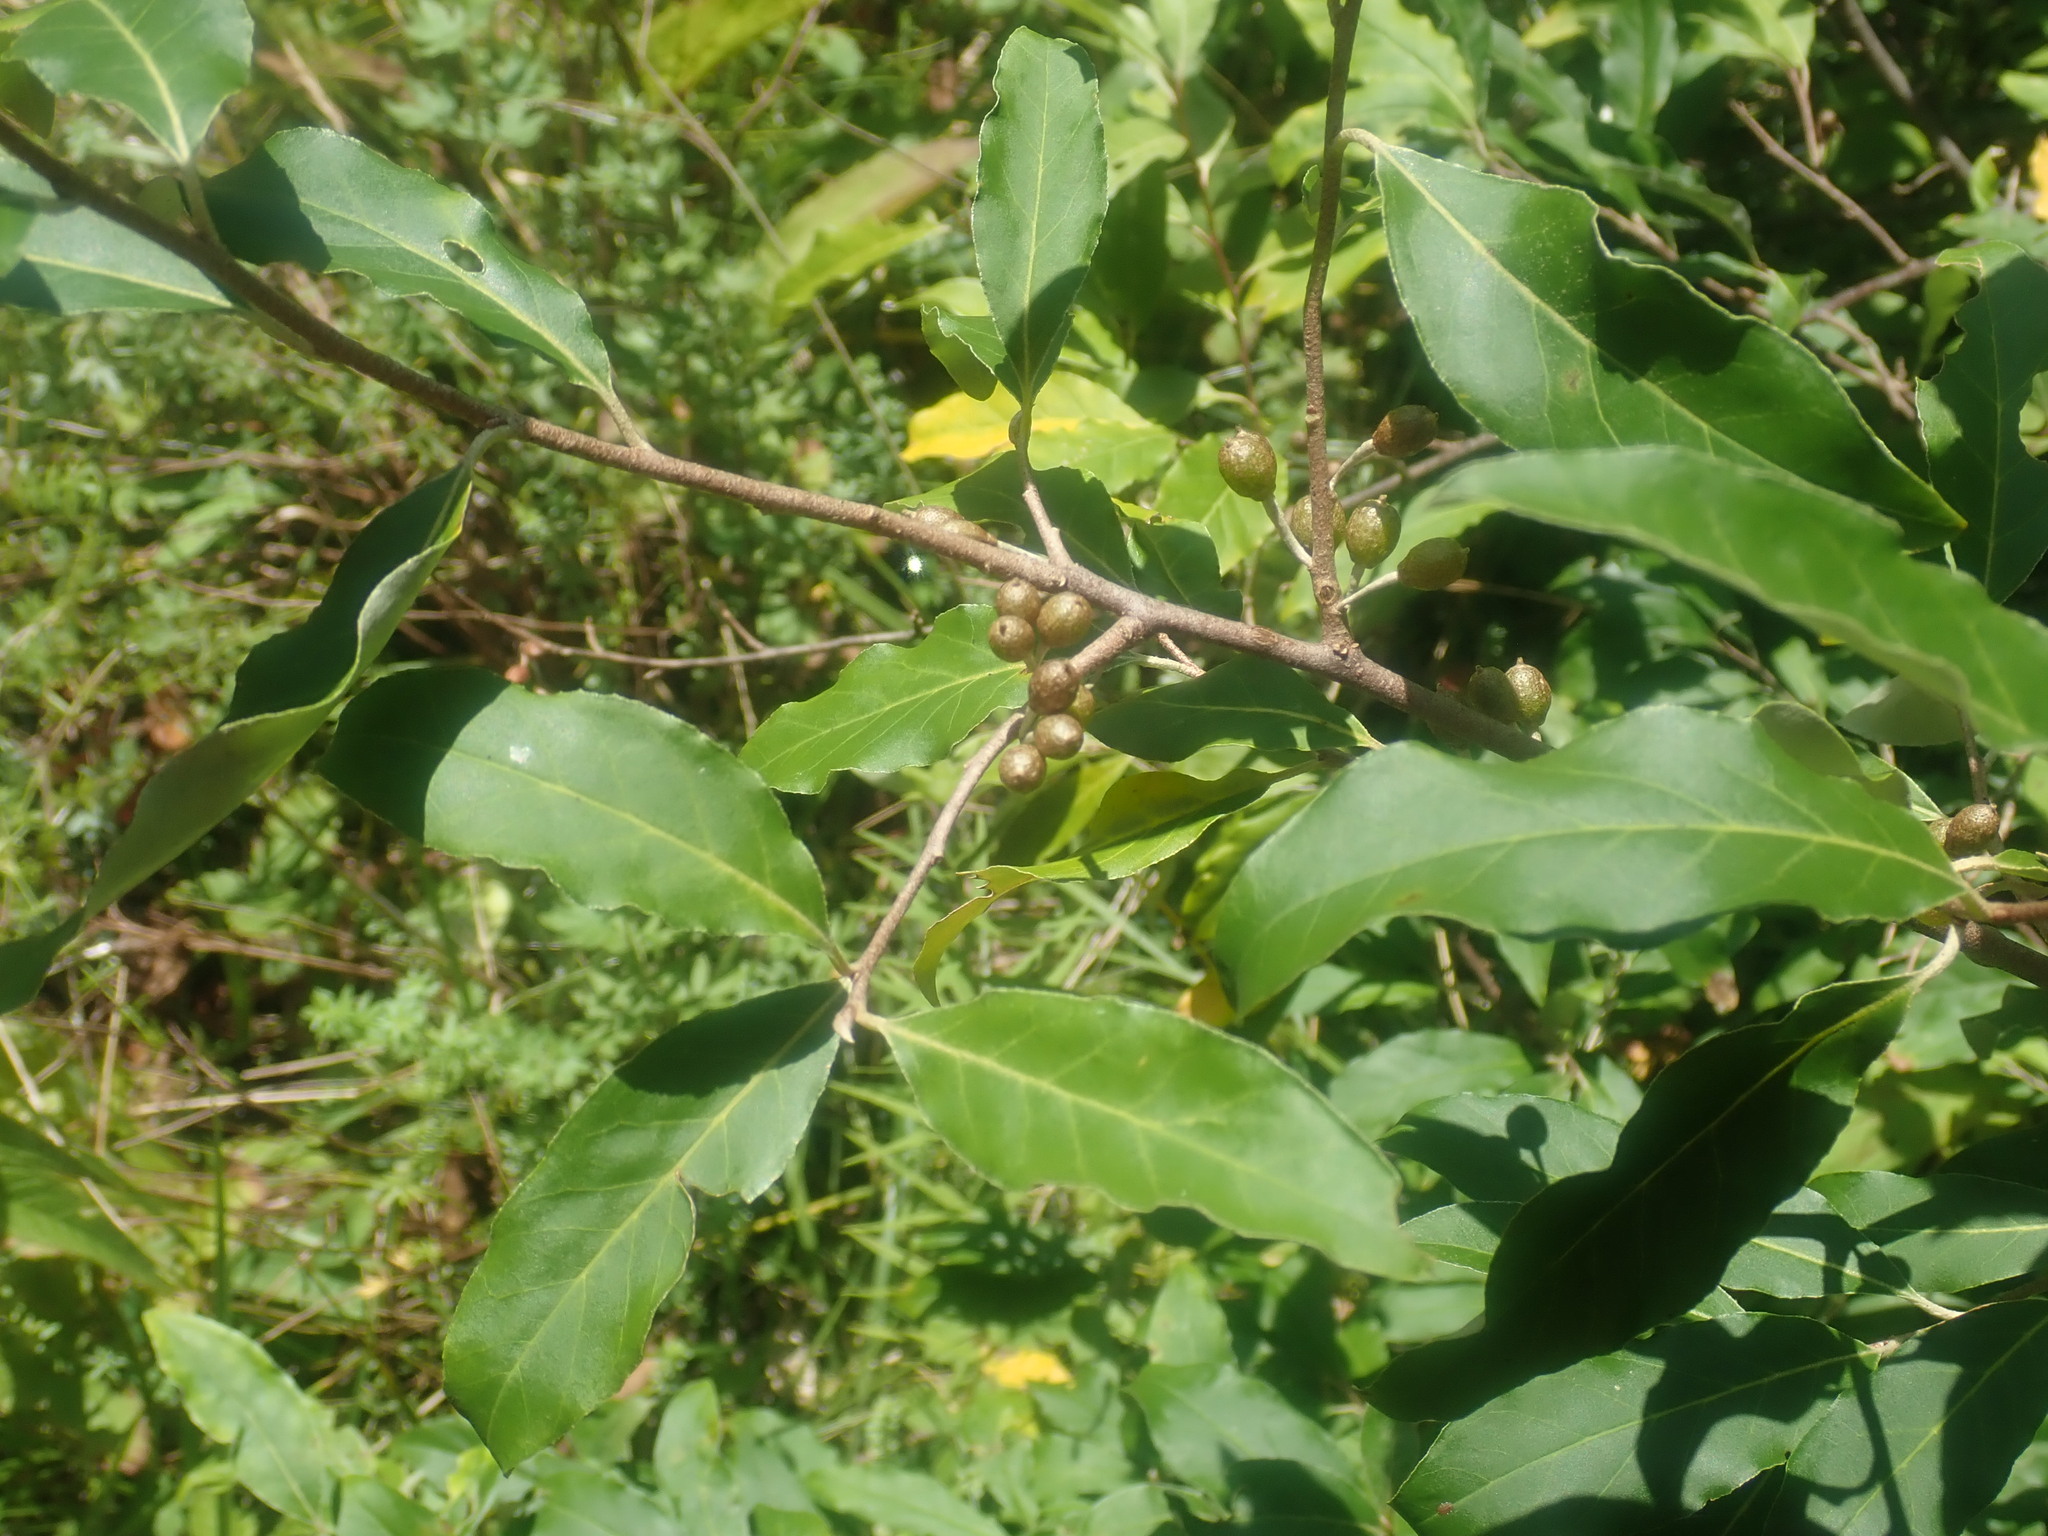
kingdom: Plantae
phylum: Tracheophyta
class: Magnoliopsida
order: Rosales
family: Elaeagnaceae
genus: Elaeagnus
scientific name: Elaeagnus umbellata
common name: Autumn olive
